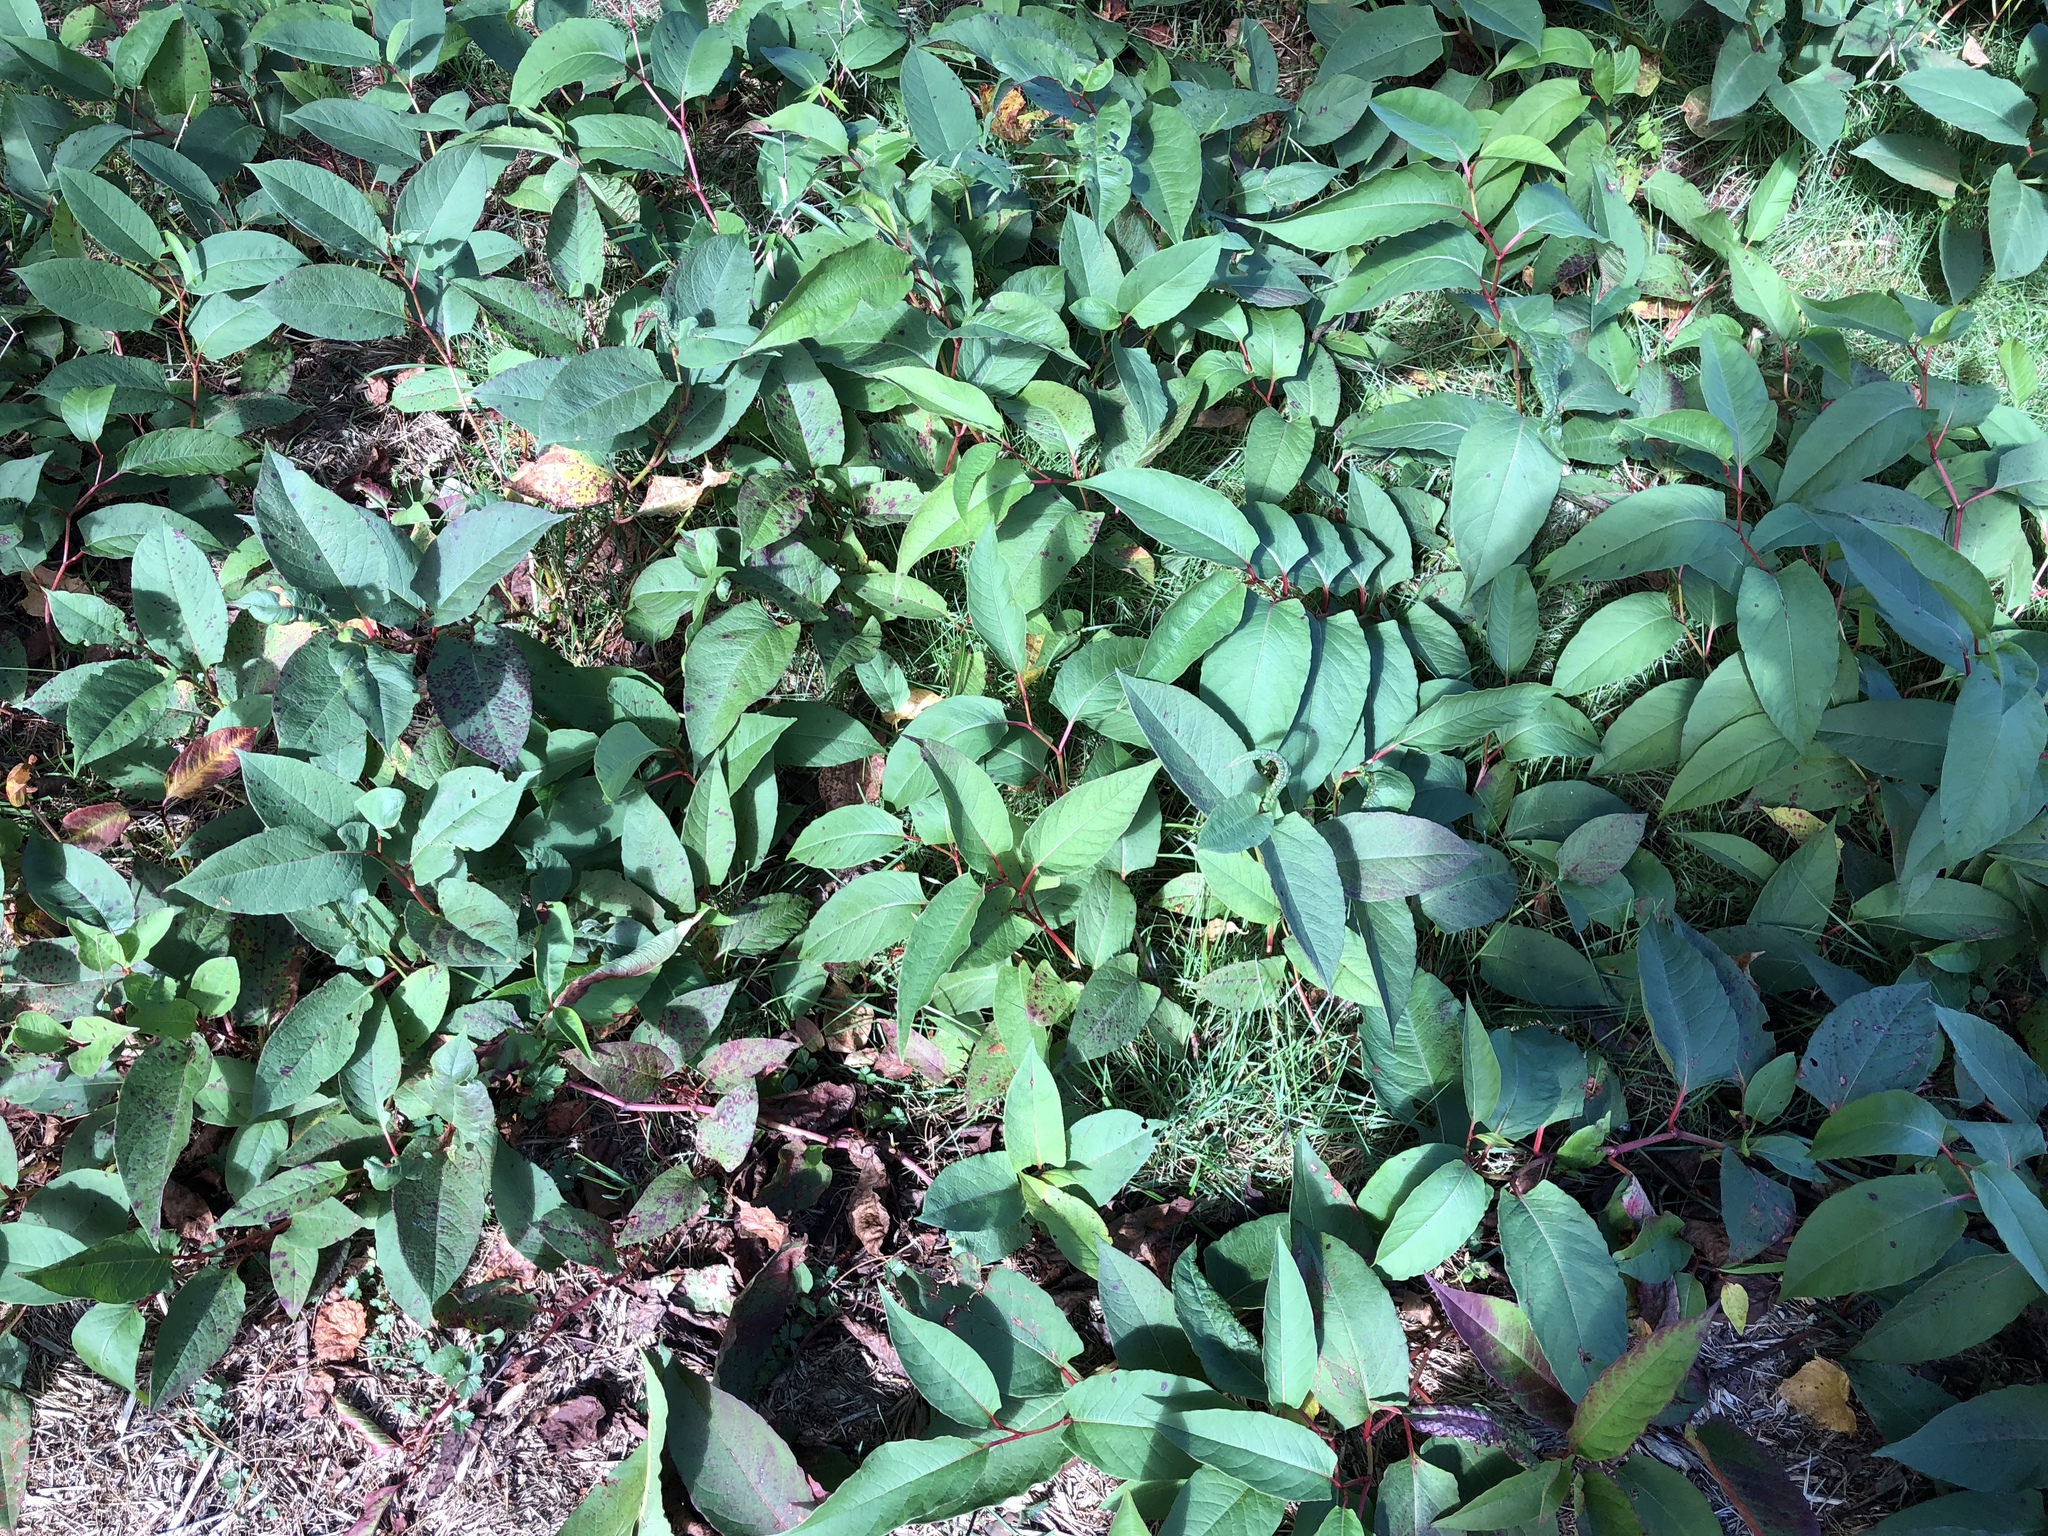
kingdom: Plantae
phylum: Tracheophyta
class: Magnoliopsida
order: Caryophyllales
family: Polygonaceae
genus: Reynoutria
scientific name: Reynoutria japonica
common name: Japanese knotweed
